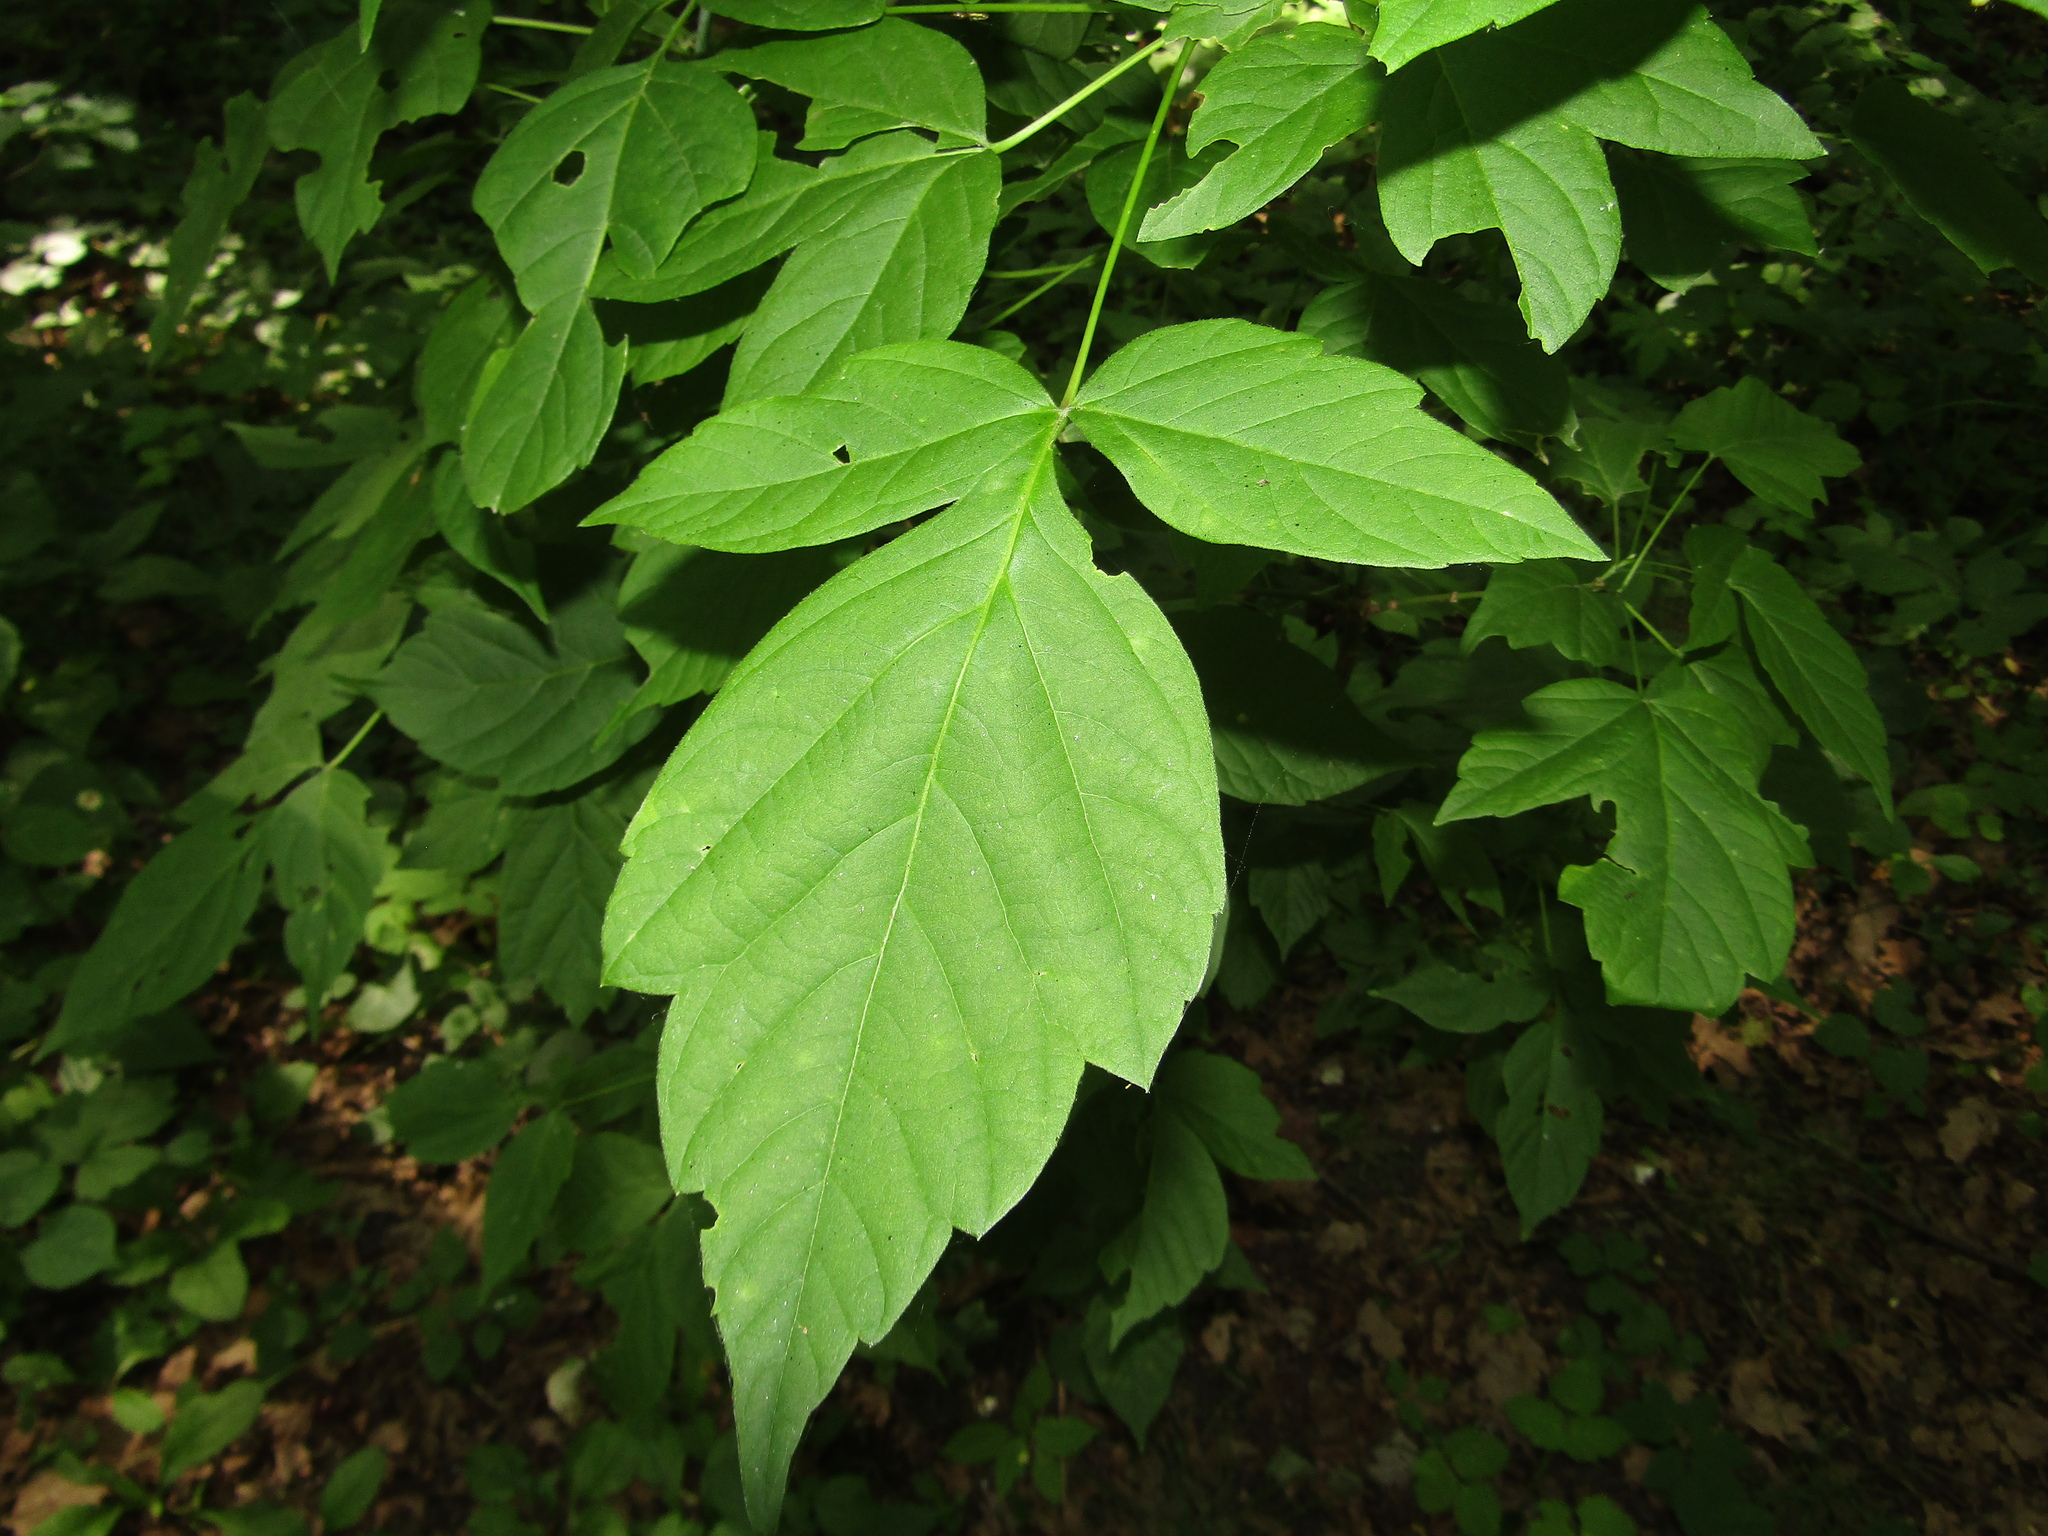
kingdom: Plantae
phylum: Tracheophyta
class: Magnoliopsida
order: Sapindales
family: Sapindaceae
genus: Acer
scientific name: Acer negundo
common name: Ashleaf maple
